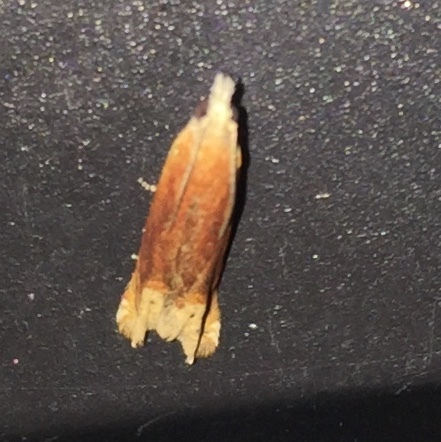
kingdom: Animalia
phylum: Arthropoda
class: Insecta
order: Lepidoptera
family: Tortricidae
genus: Eucosma
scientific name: Eucosma raracana
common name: Reddish eucosma moth
